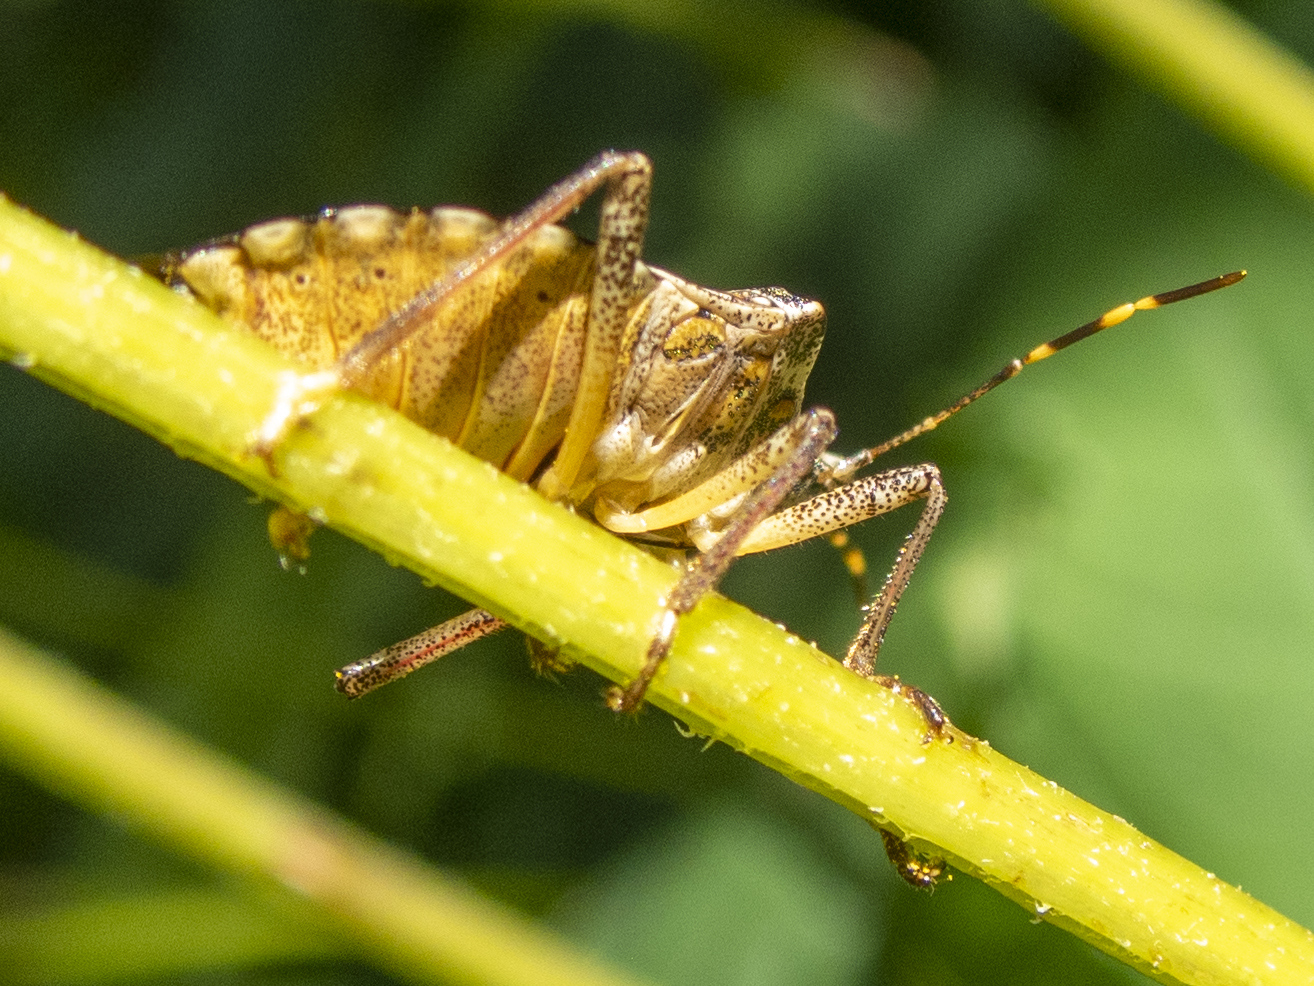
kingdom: Animalia
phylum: Arthropoda
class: Insecta
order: Hemiptera
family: Pentatomidae
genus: Halyomorpha
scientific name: Halyomorpha halys
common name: Brown marmorated stink bug
